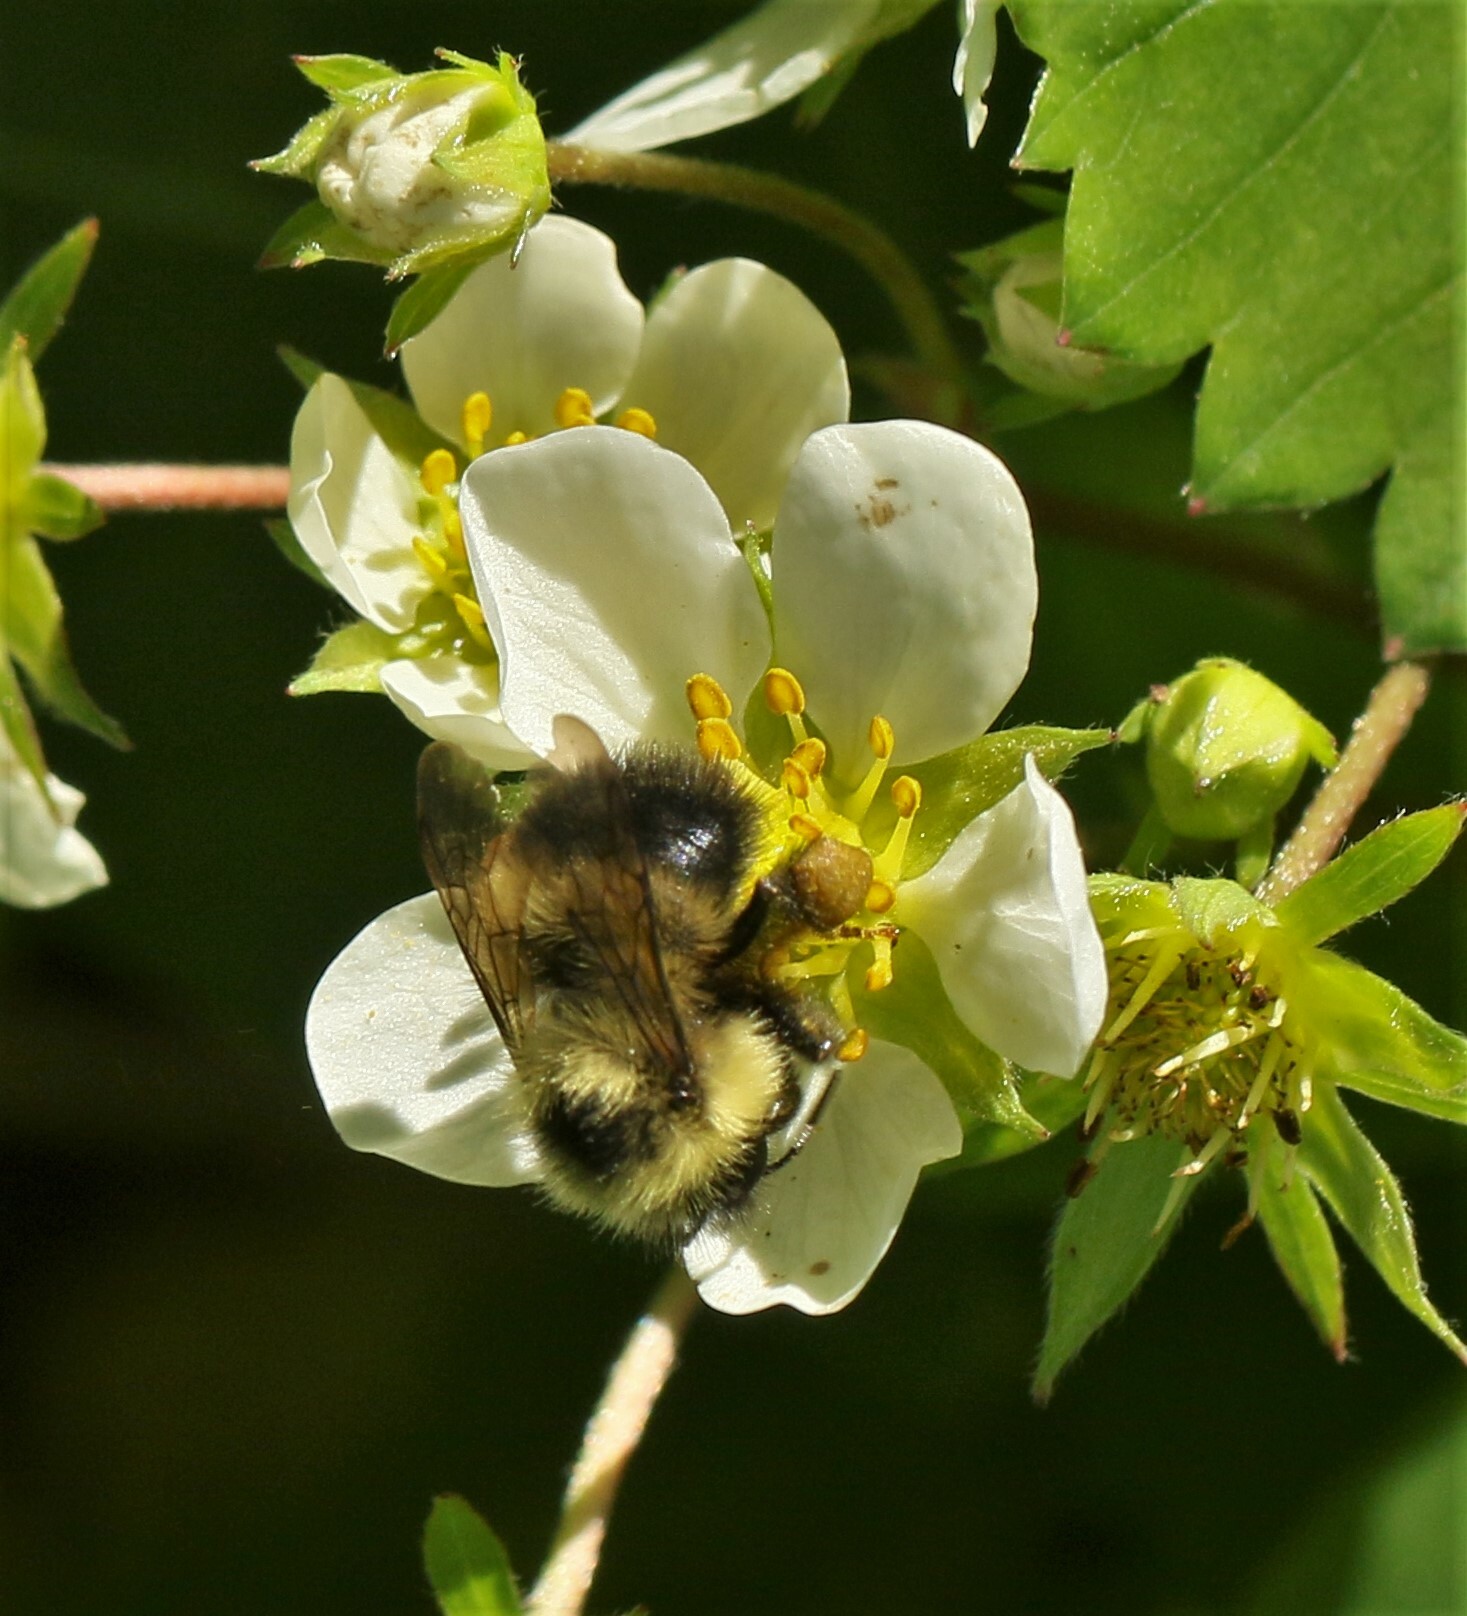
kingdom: Animalia
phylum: Arthropoda
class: Insecta
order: Hymenoptera
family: Apidae
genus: Pyrobombus
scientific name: Pyrobombus
